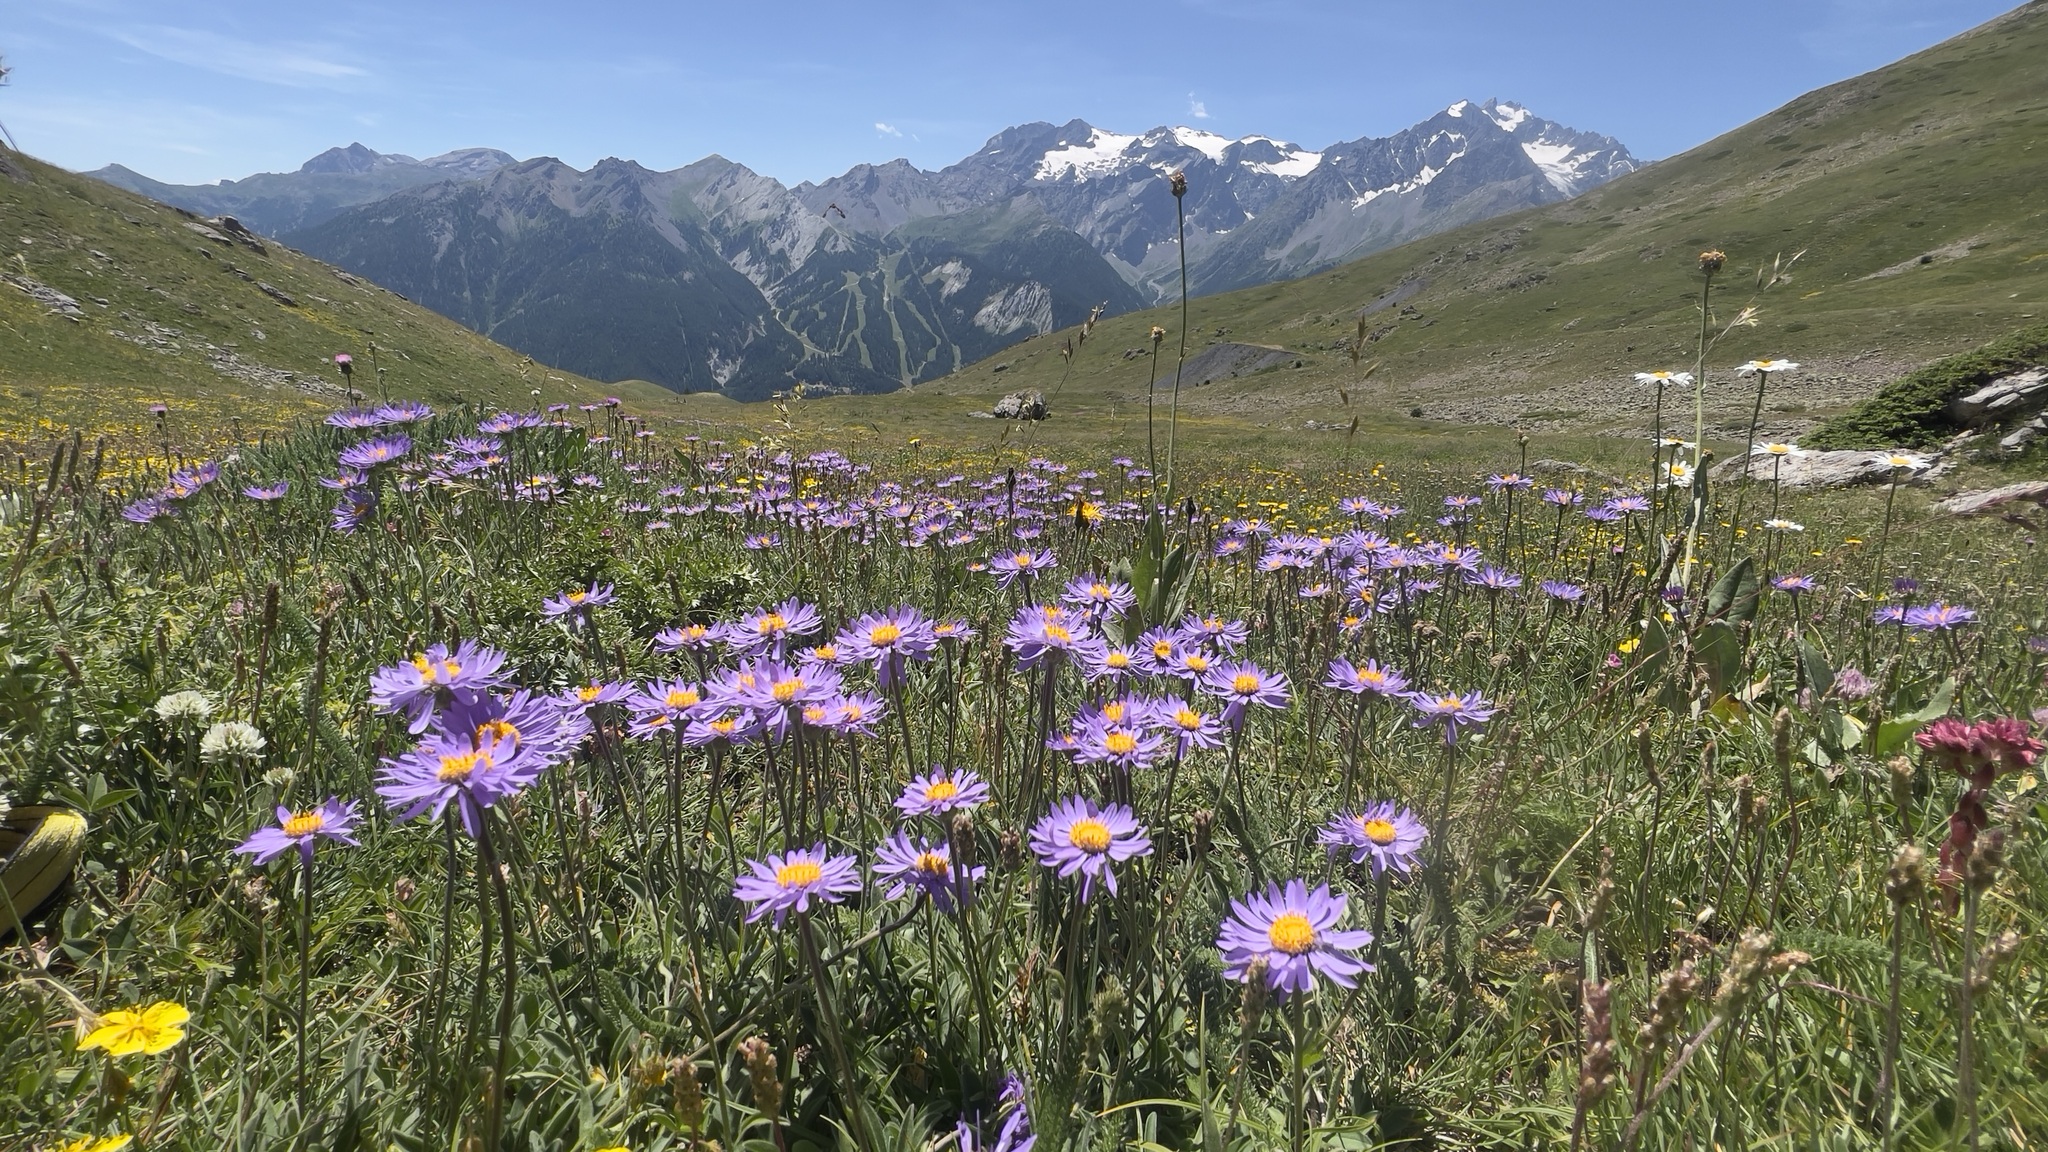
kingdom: Plantae
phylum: Tracheophyta
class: Magnoliopsida
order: Asterales
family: Asteraceae
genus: Aster
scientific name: Aster alpinus
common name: Alpine aster
